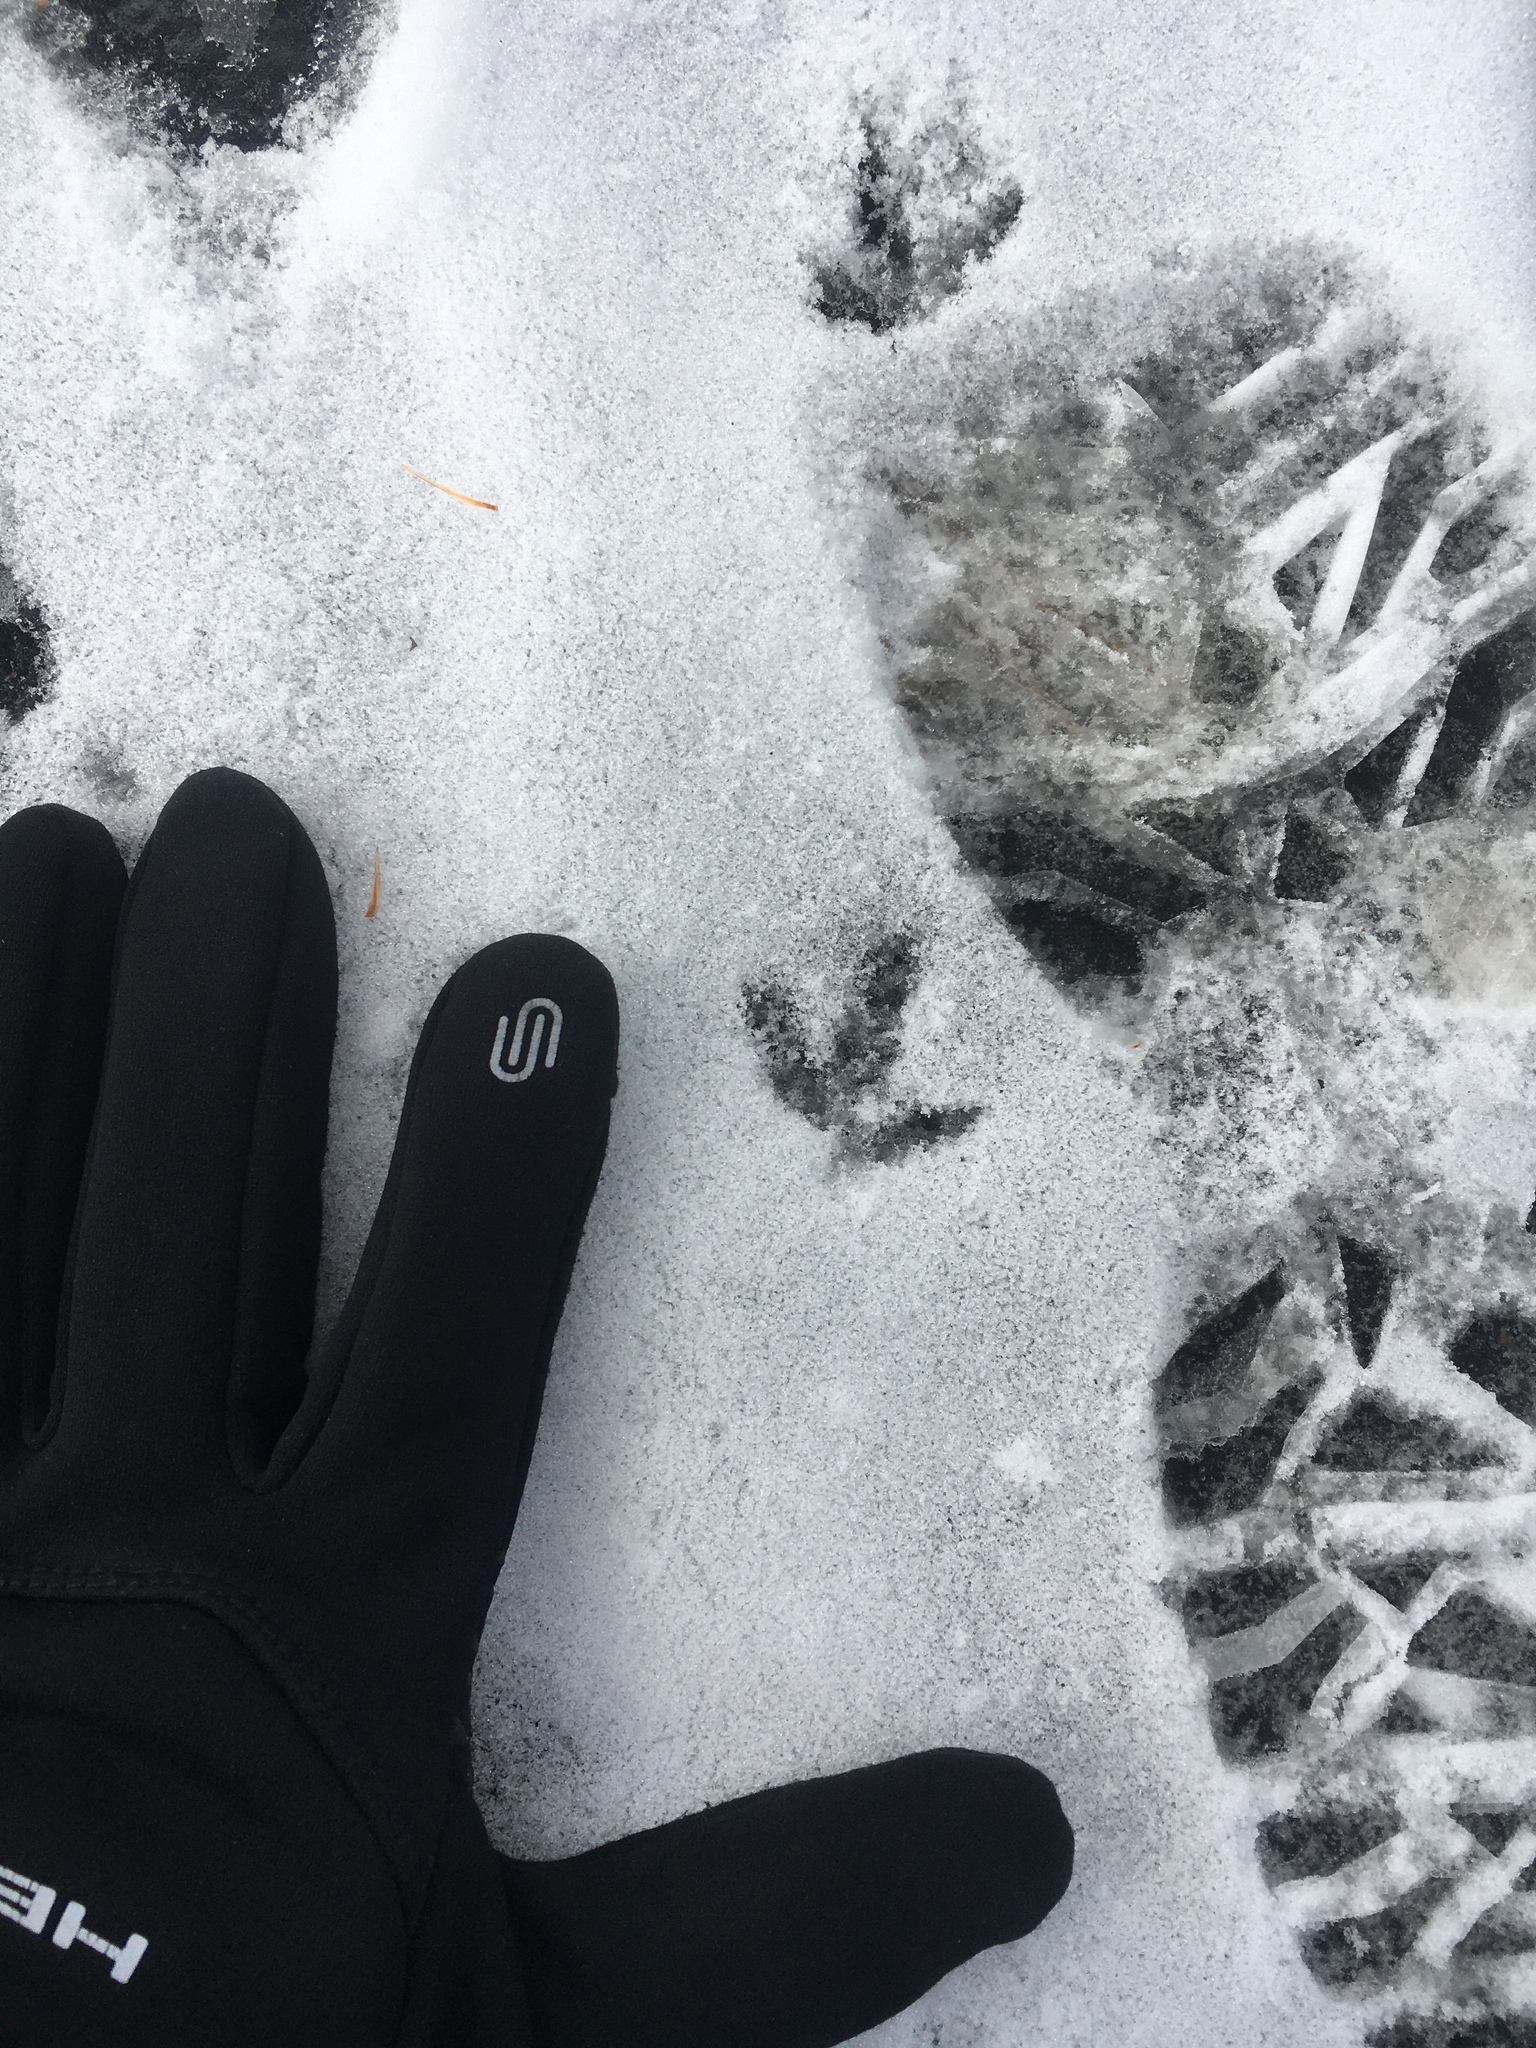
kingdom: Animalia
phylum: Chordata
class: Aves
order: Charadriiformes
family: Charadriidae
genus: Charadrius
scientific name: Charadrius vociferus
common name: Killdeer
